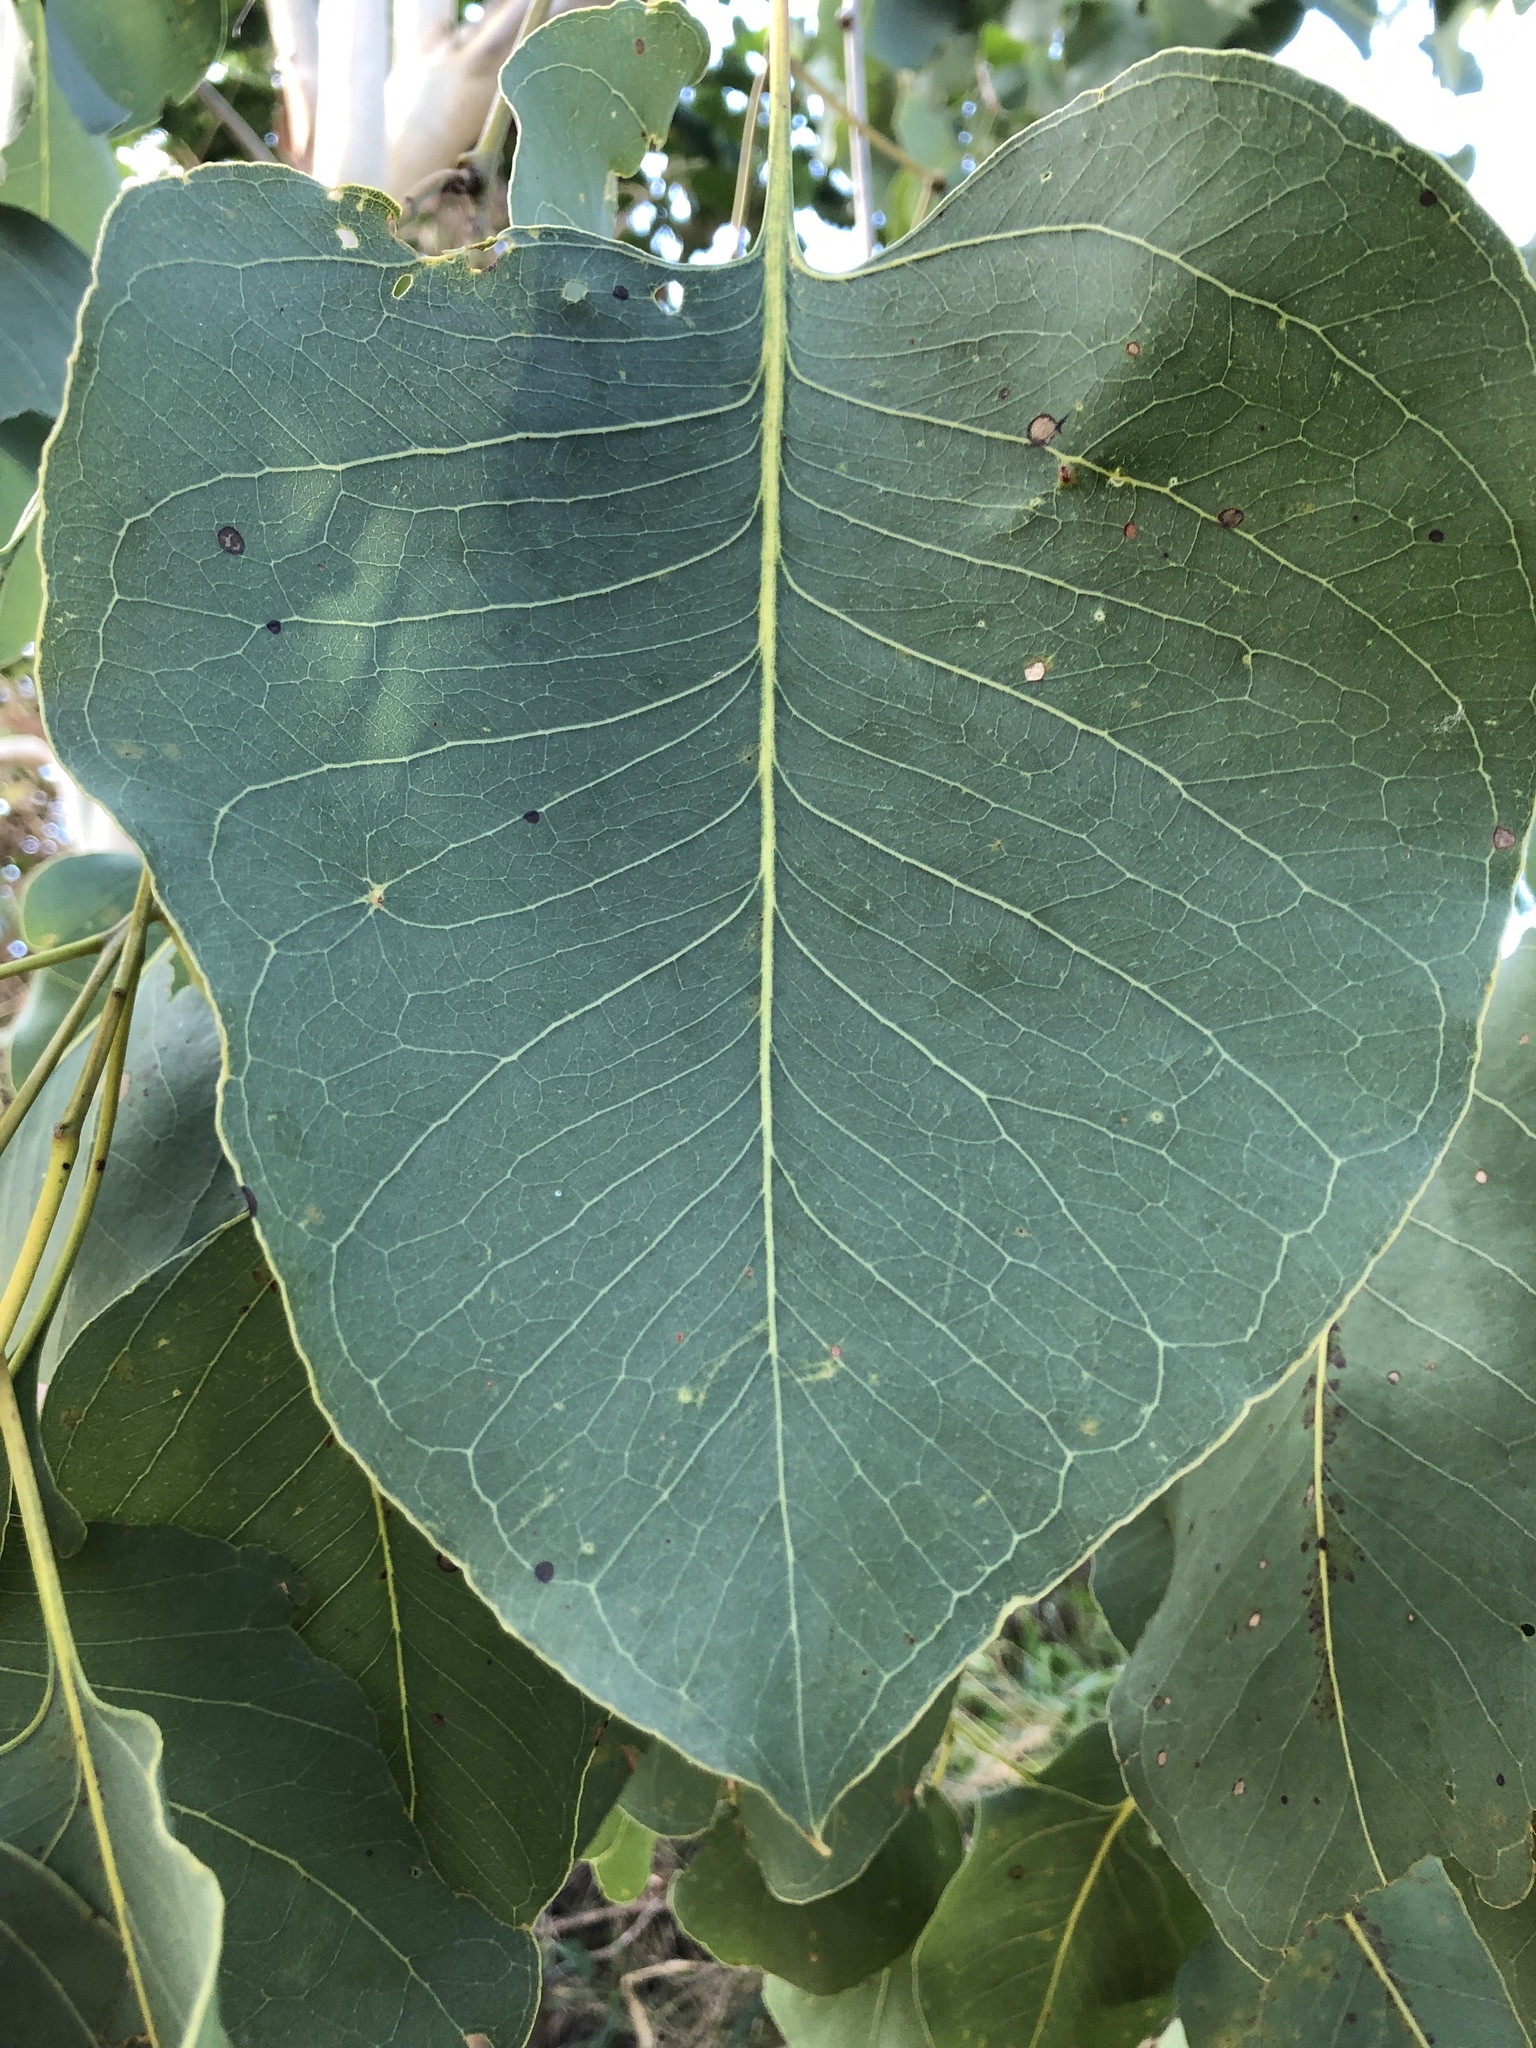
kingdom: Plantae
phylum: Tracheophyta
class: Magnoliopsida
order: Myrtales
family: Myrtaceae
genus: Eucalyptus
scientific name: Eucalyptus platyphylla
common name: Poplar-gum
